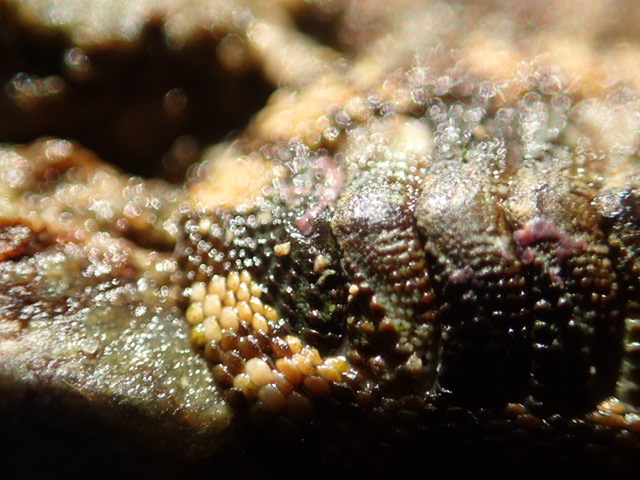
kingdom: Animalia
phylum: Mollusca
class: Polyplacophora
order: Chitonida
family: Chitonidae
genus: Sypharochiton
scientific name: Sypharochiton pelliserpentis
